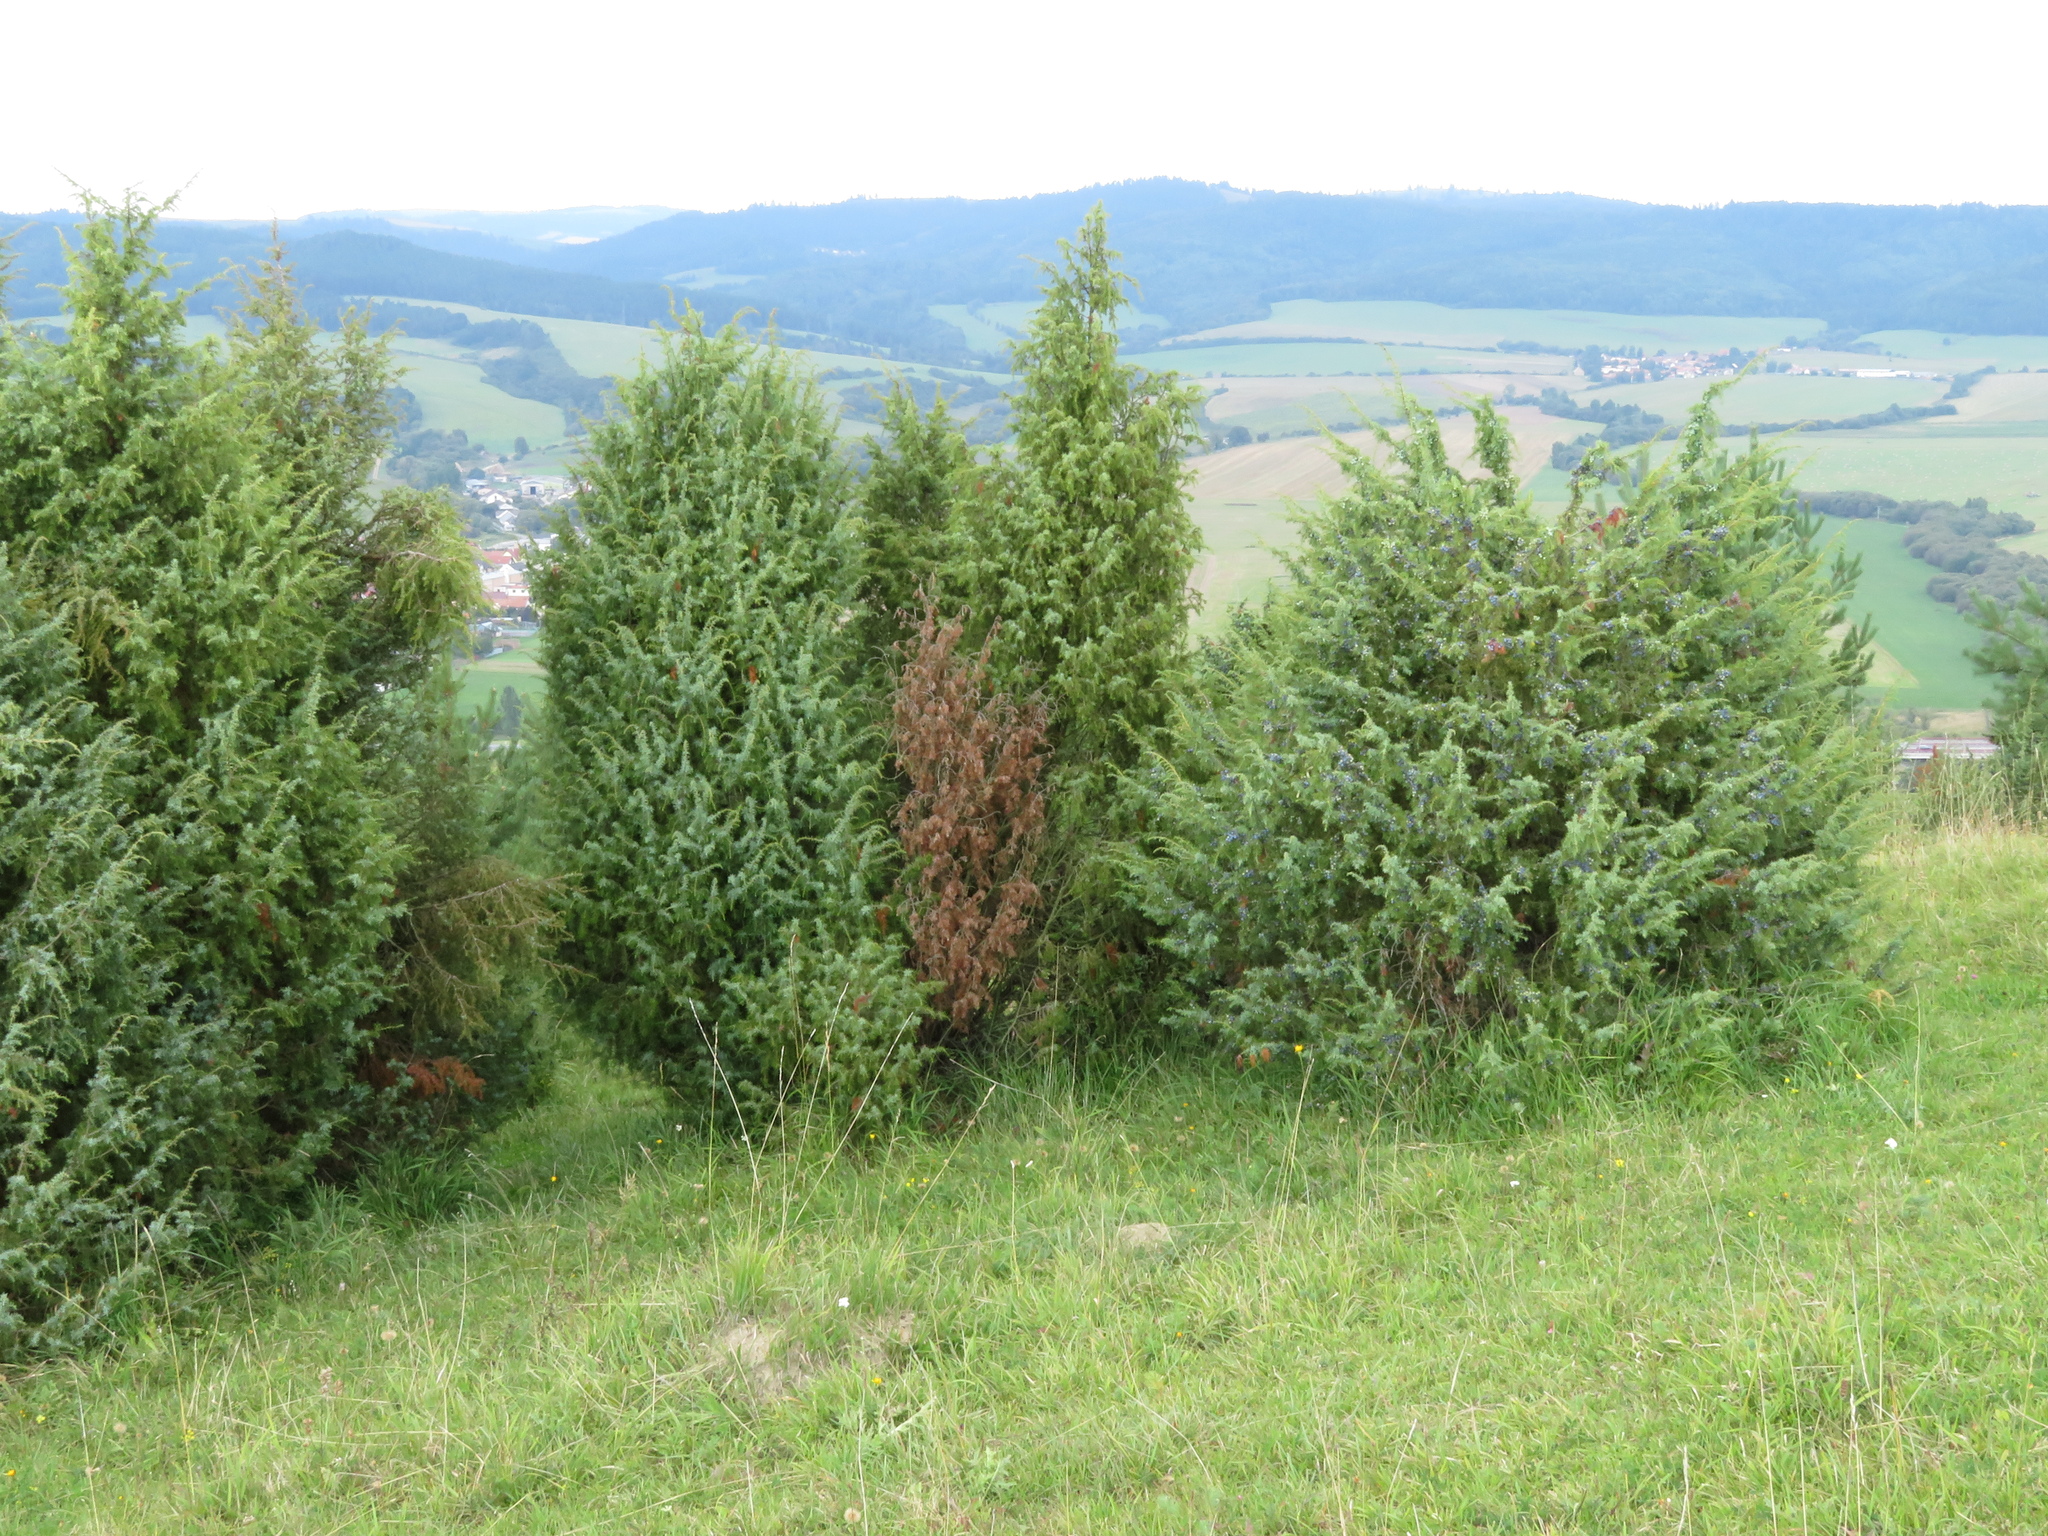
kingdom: Plantae
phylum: Tracheophyta
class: Pinopsida
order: Pinales
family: Cupressaceae
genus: Juniperus
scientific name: Juniperus communis
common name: Common juniper
